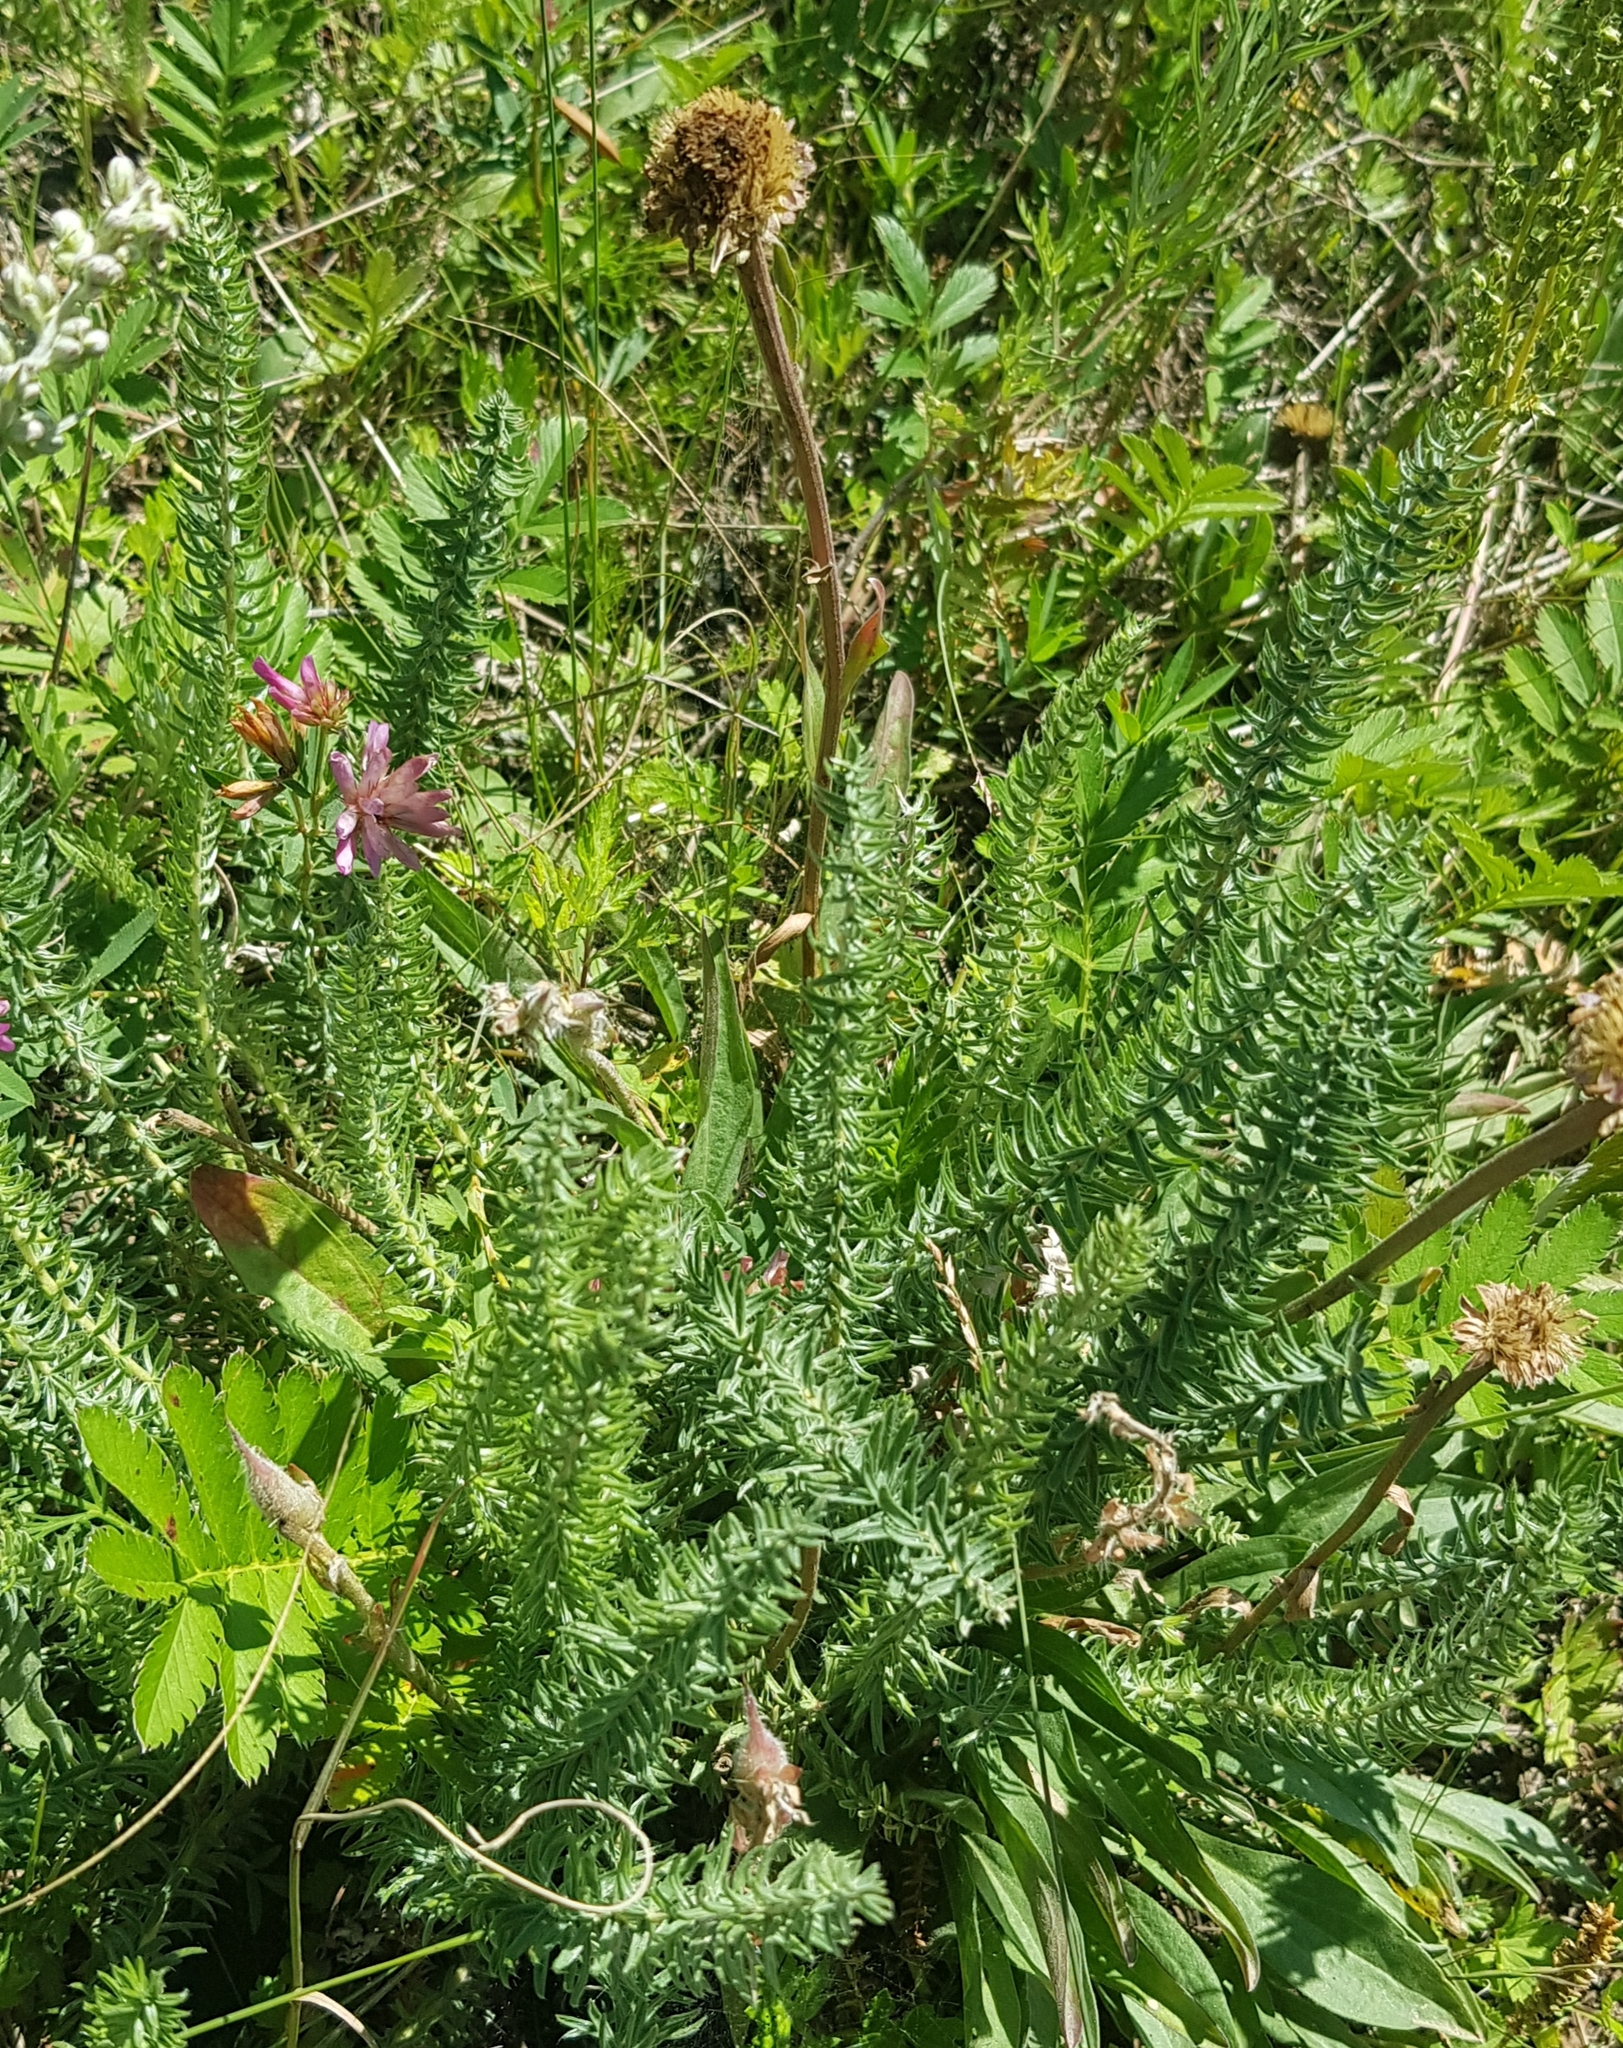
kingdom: Plantae
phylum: Tracheophyta
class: Magnoliopsida
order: Fabales
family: Fabaceae
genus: Oxytropis
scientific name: Oxytropis myriophylla
